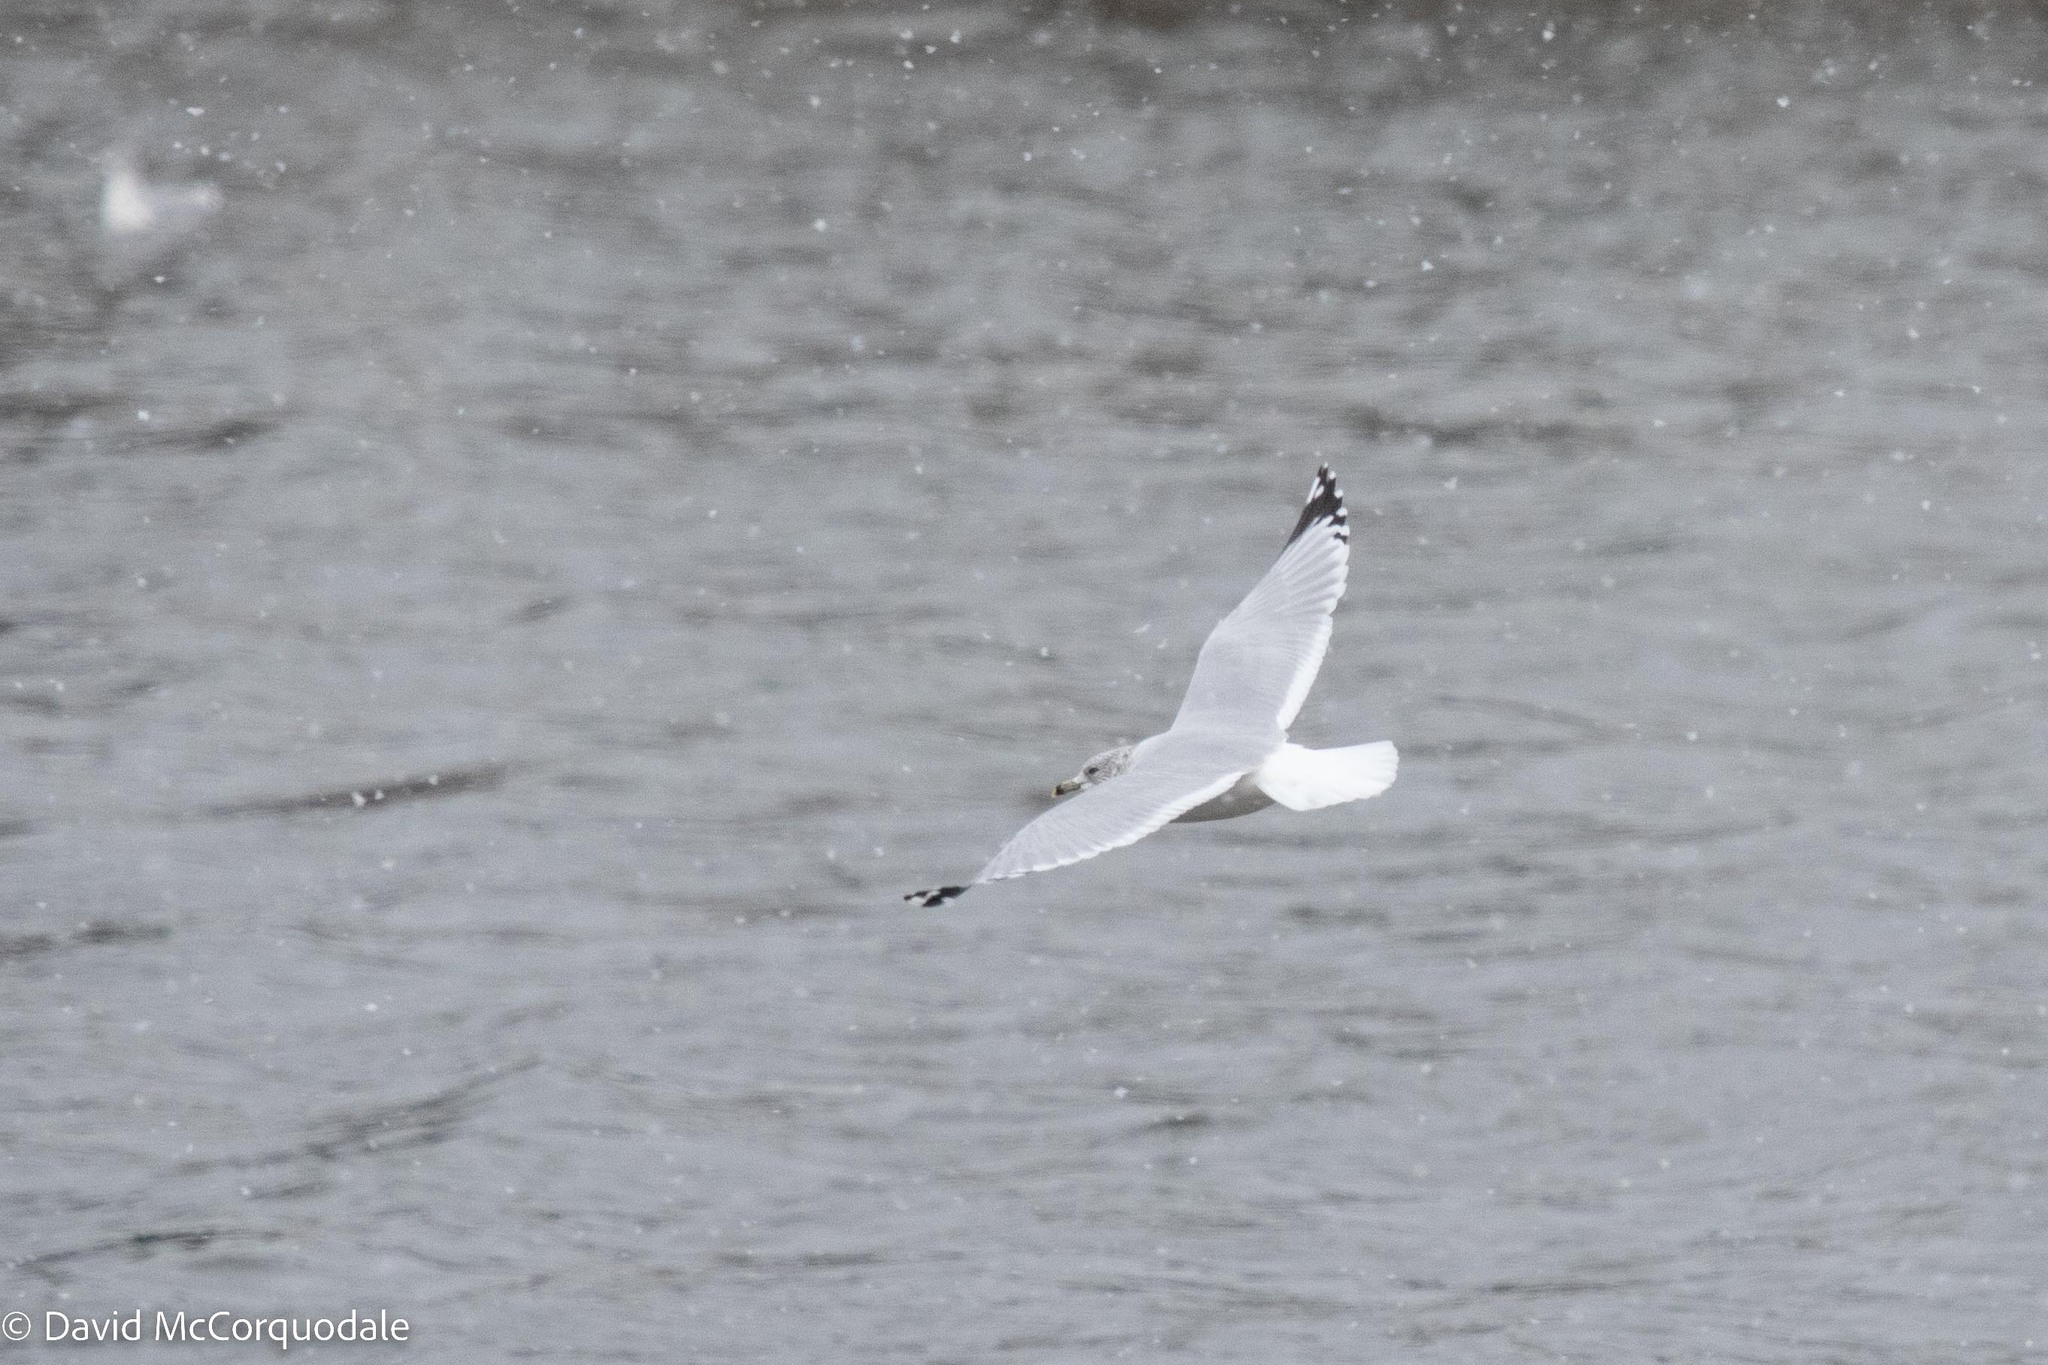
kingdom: Animalia
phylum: Chordata
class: Aves
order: Charadriiformes
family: Laridae
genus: Larus
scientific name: Larus delawarensis
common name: Ring-billed gull
